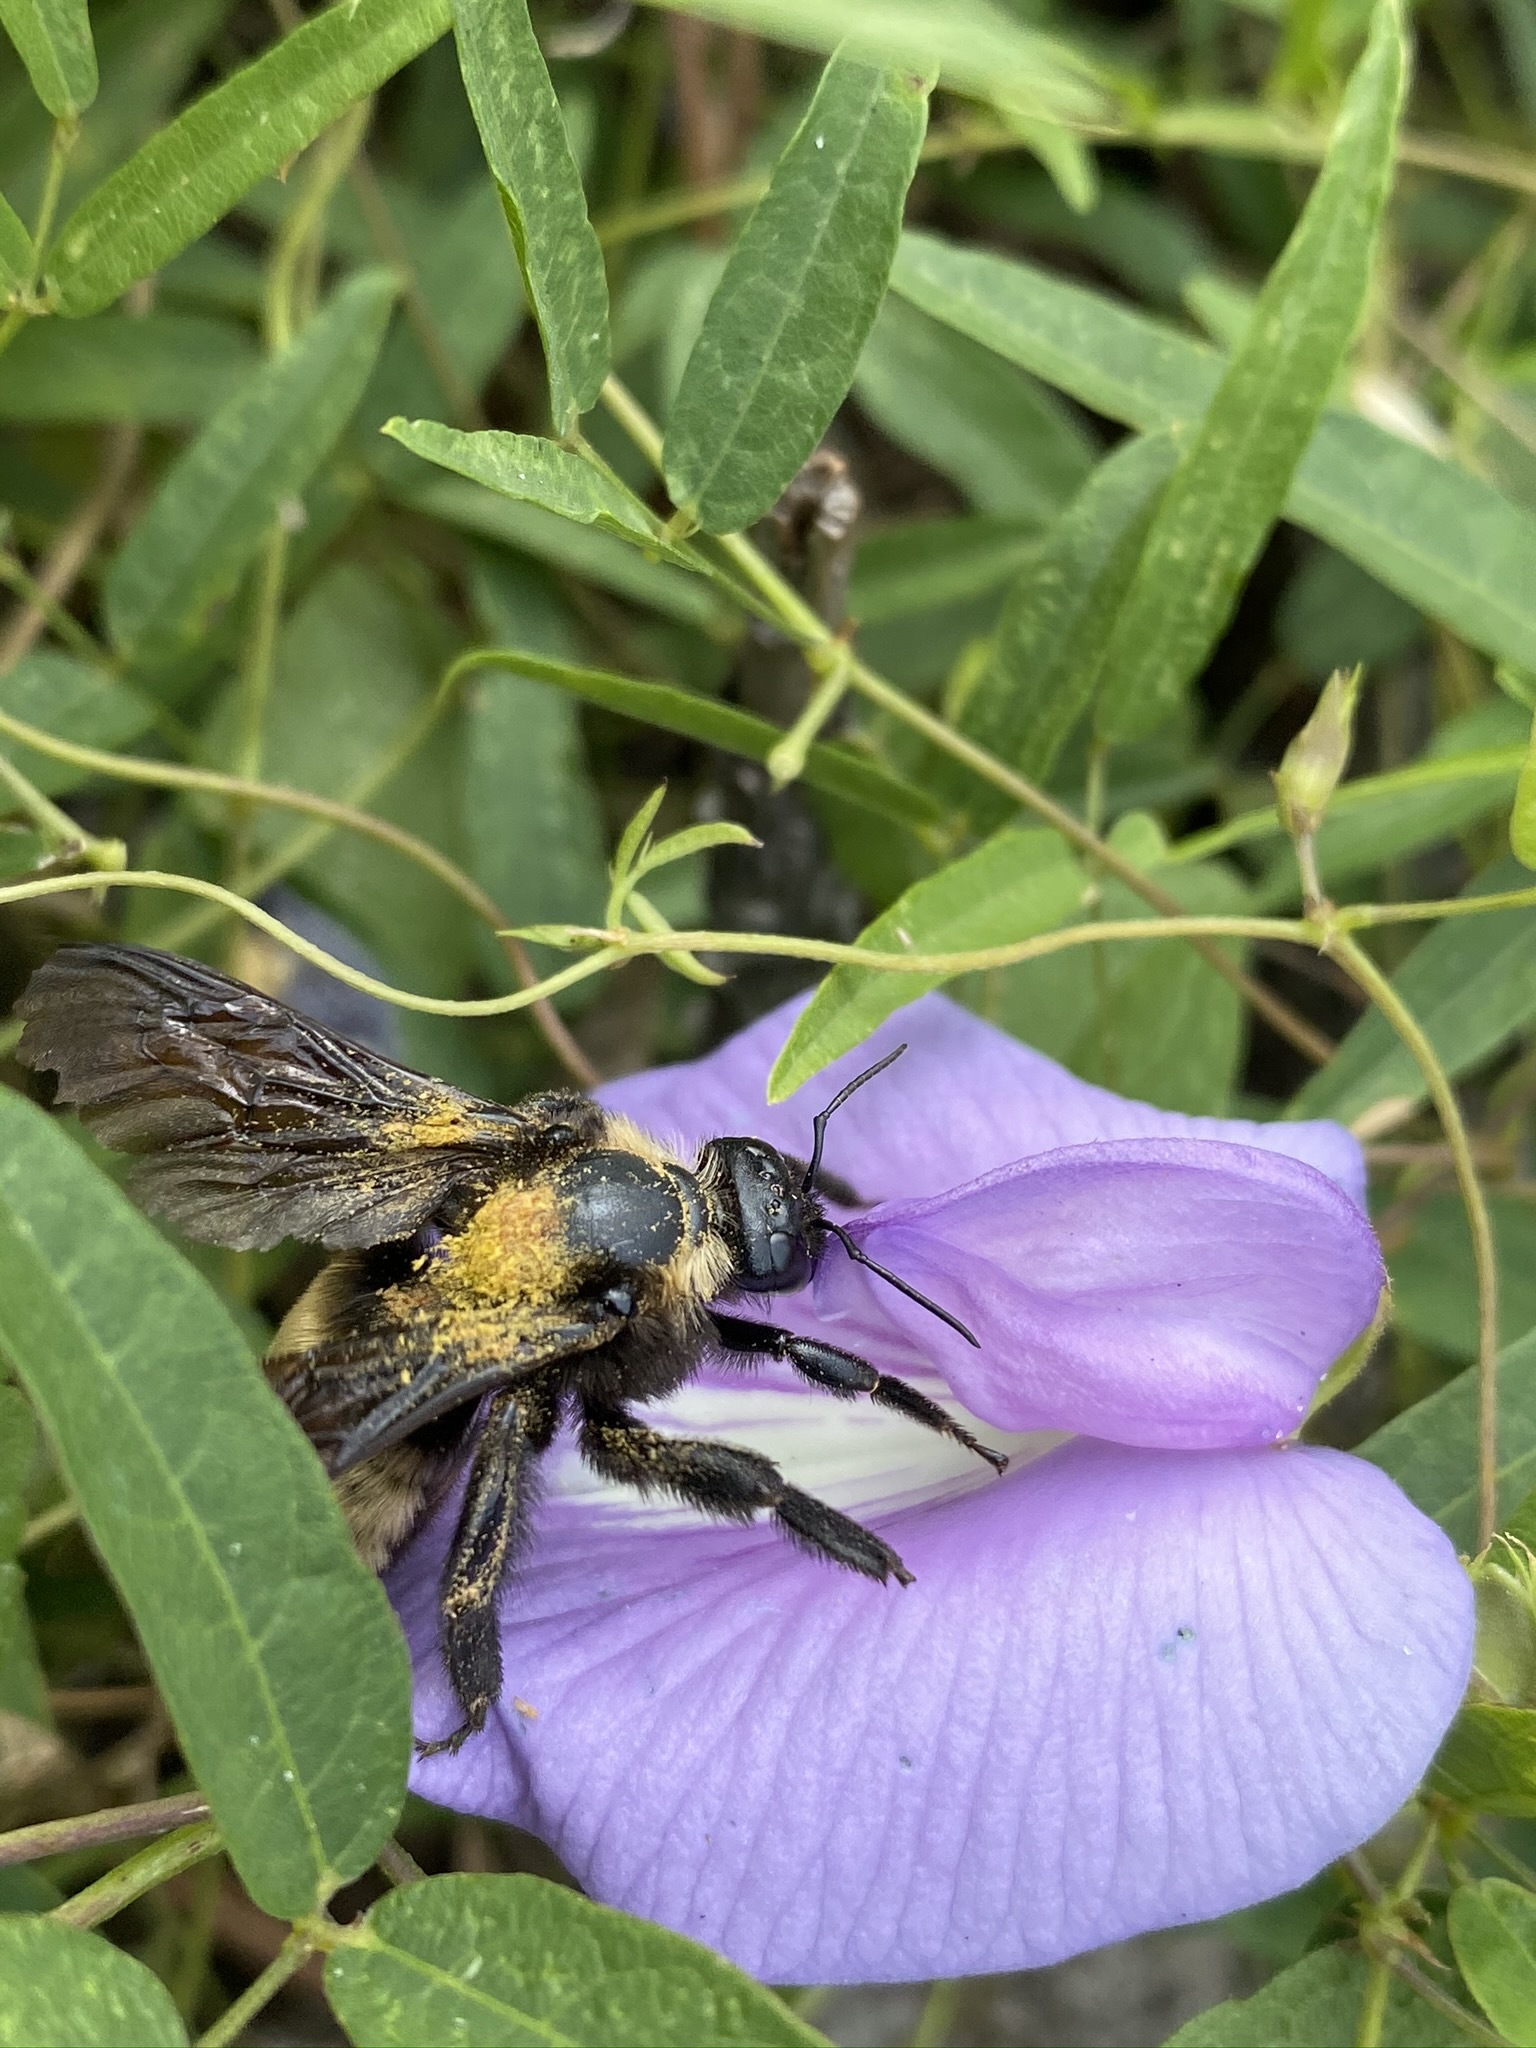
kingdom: Animalia
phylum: Arthropoda
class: Insecta
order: Hymenoptera
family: Apidae
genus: Bombus
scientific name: Bombus pensylvanicus
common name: Bumble bee
